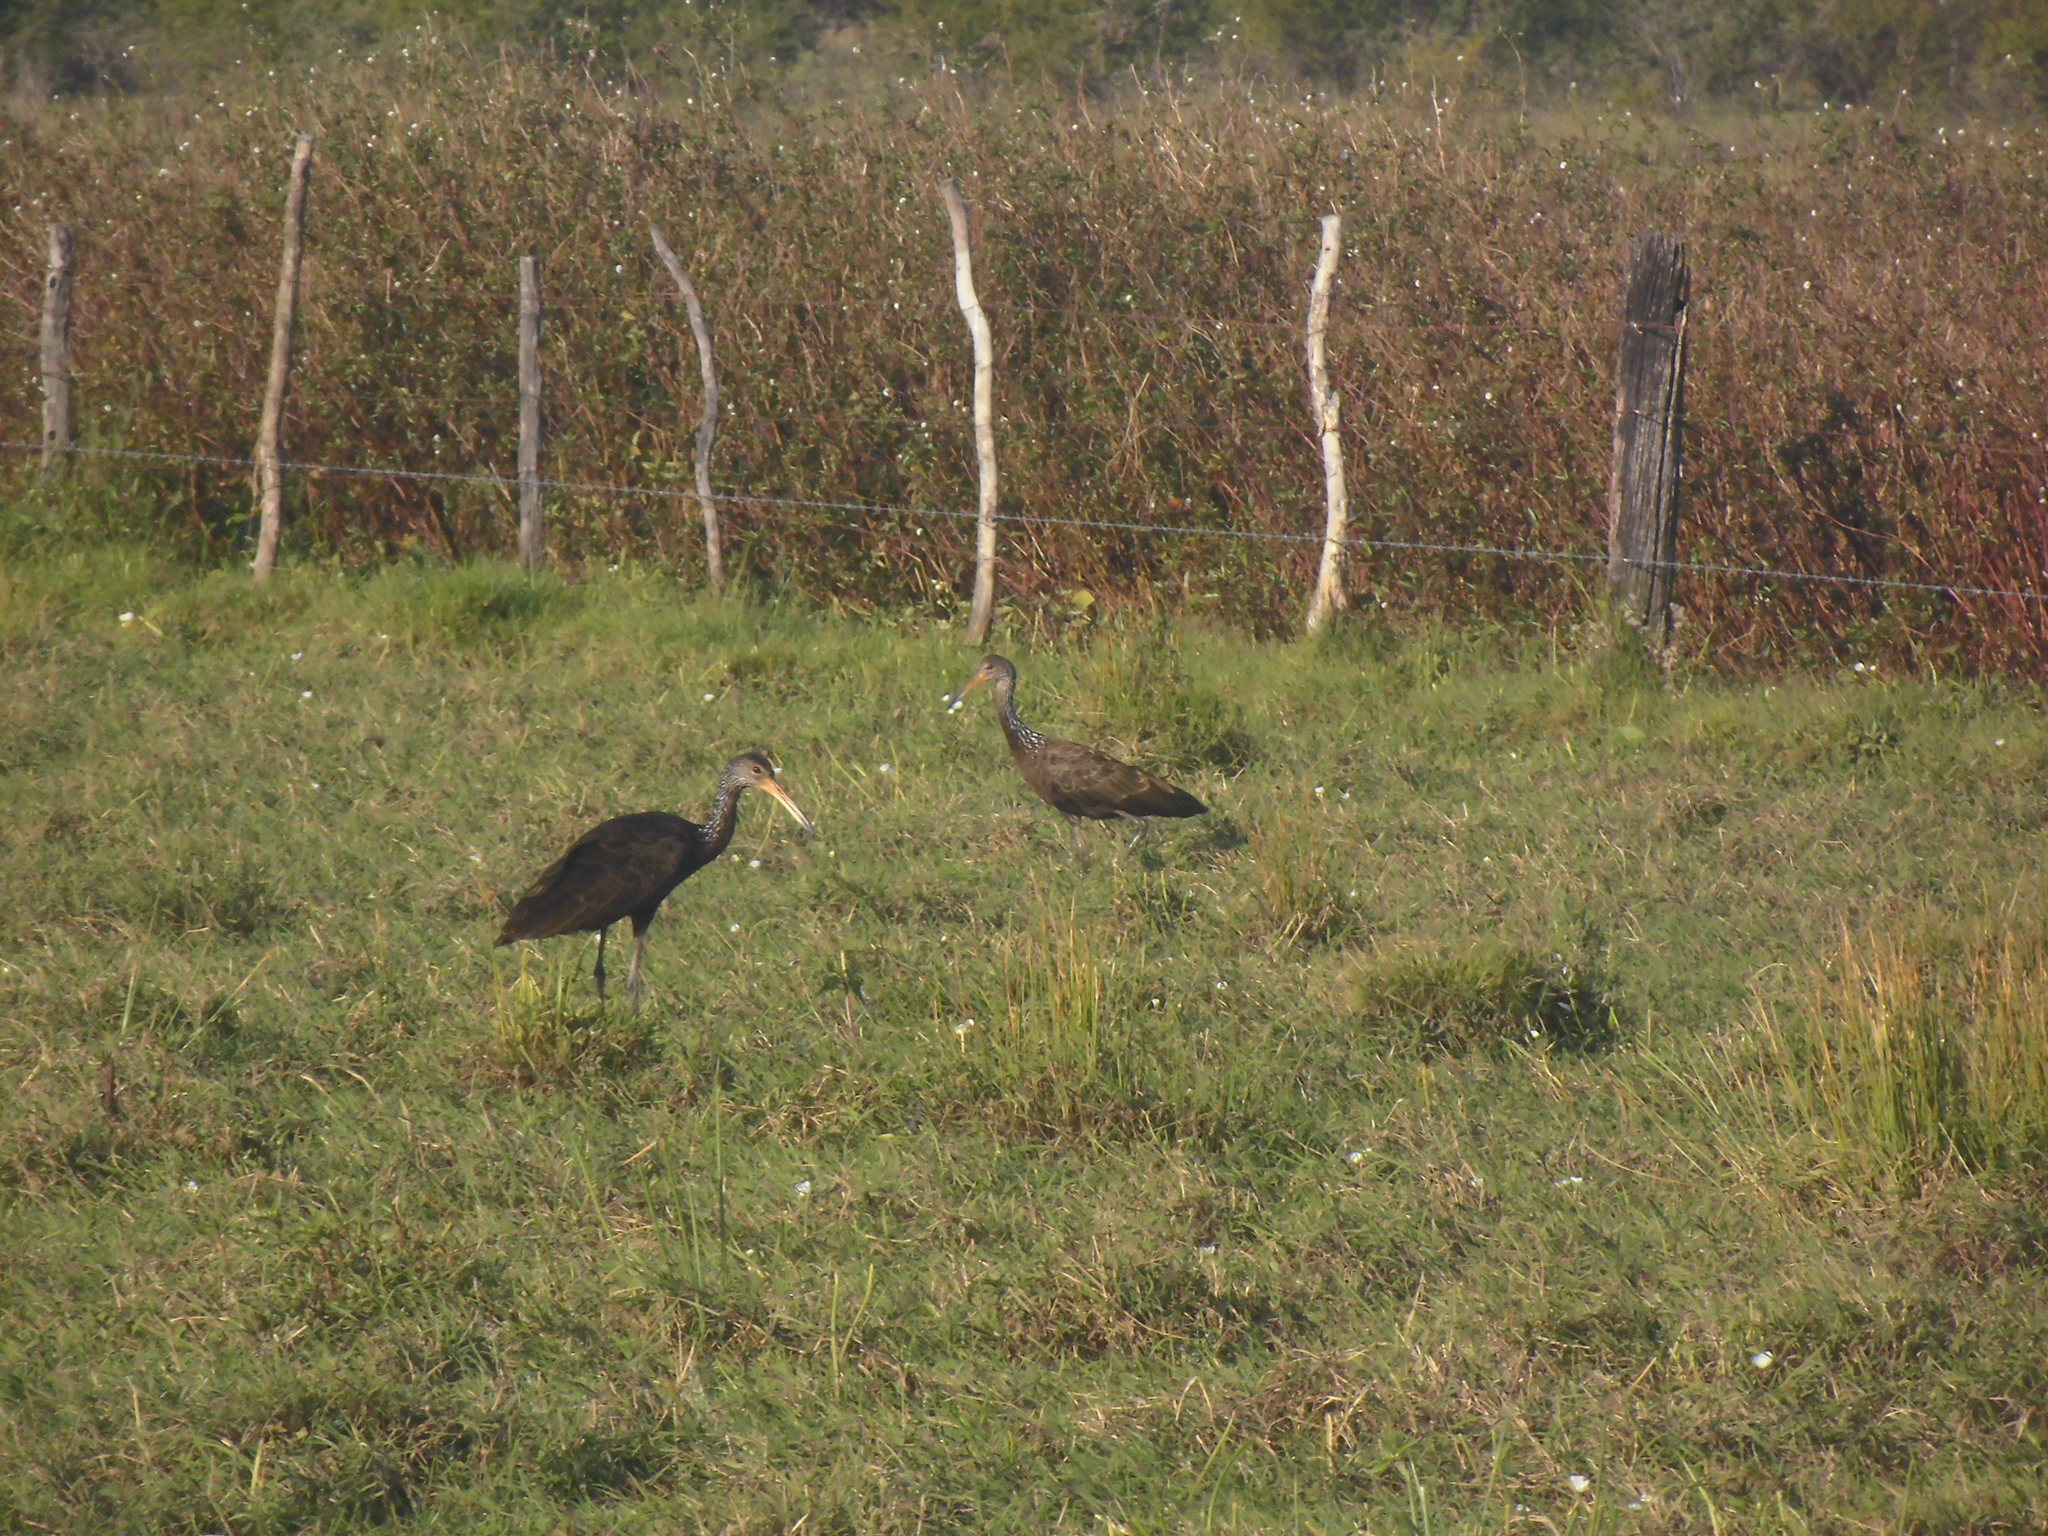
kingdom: Animalia
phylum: Chordata
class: Aves
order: Gruiformes
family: Aramidae
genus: Aramus
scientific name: Aramus guarauna
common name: Limpkin
